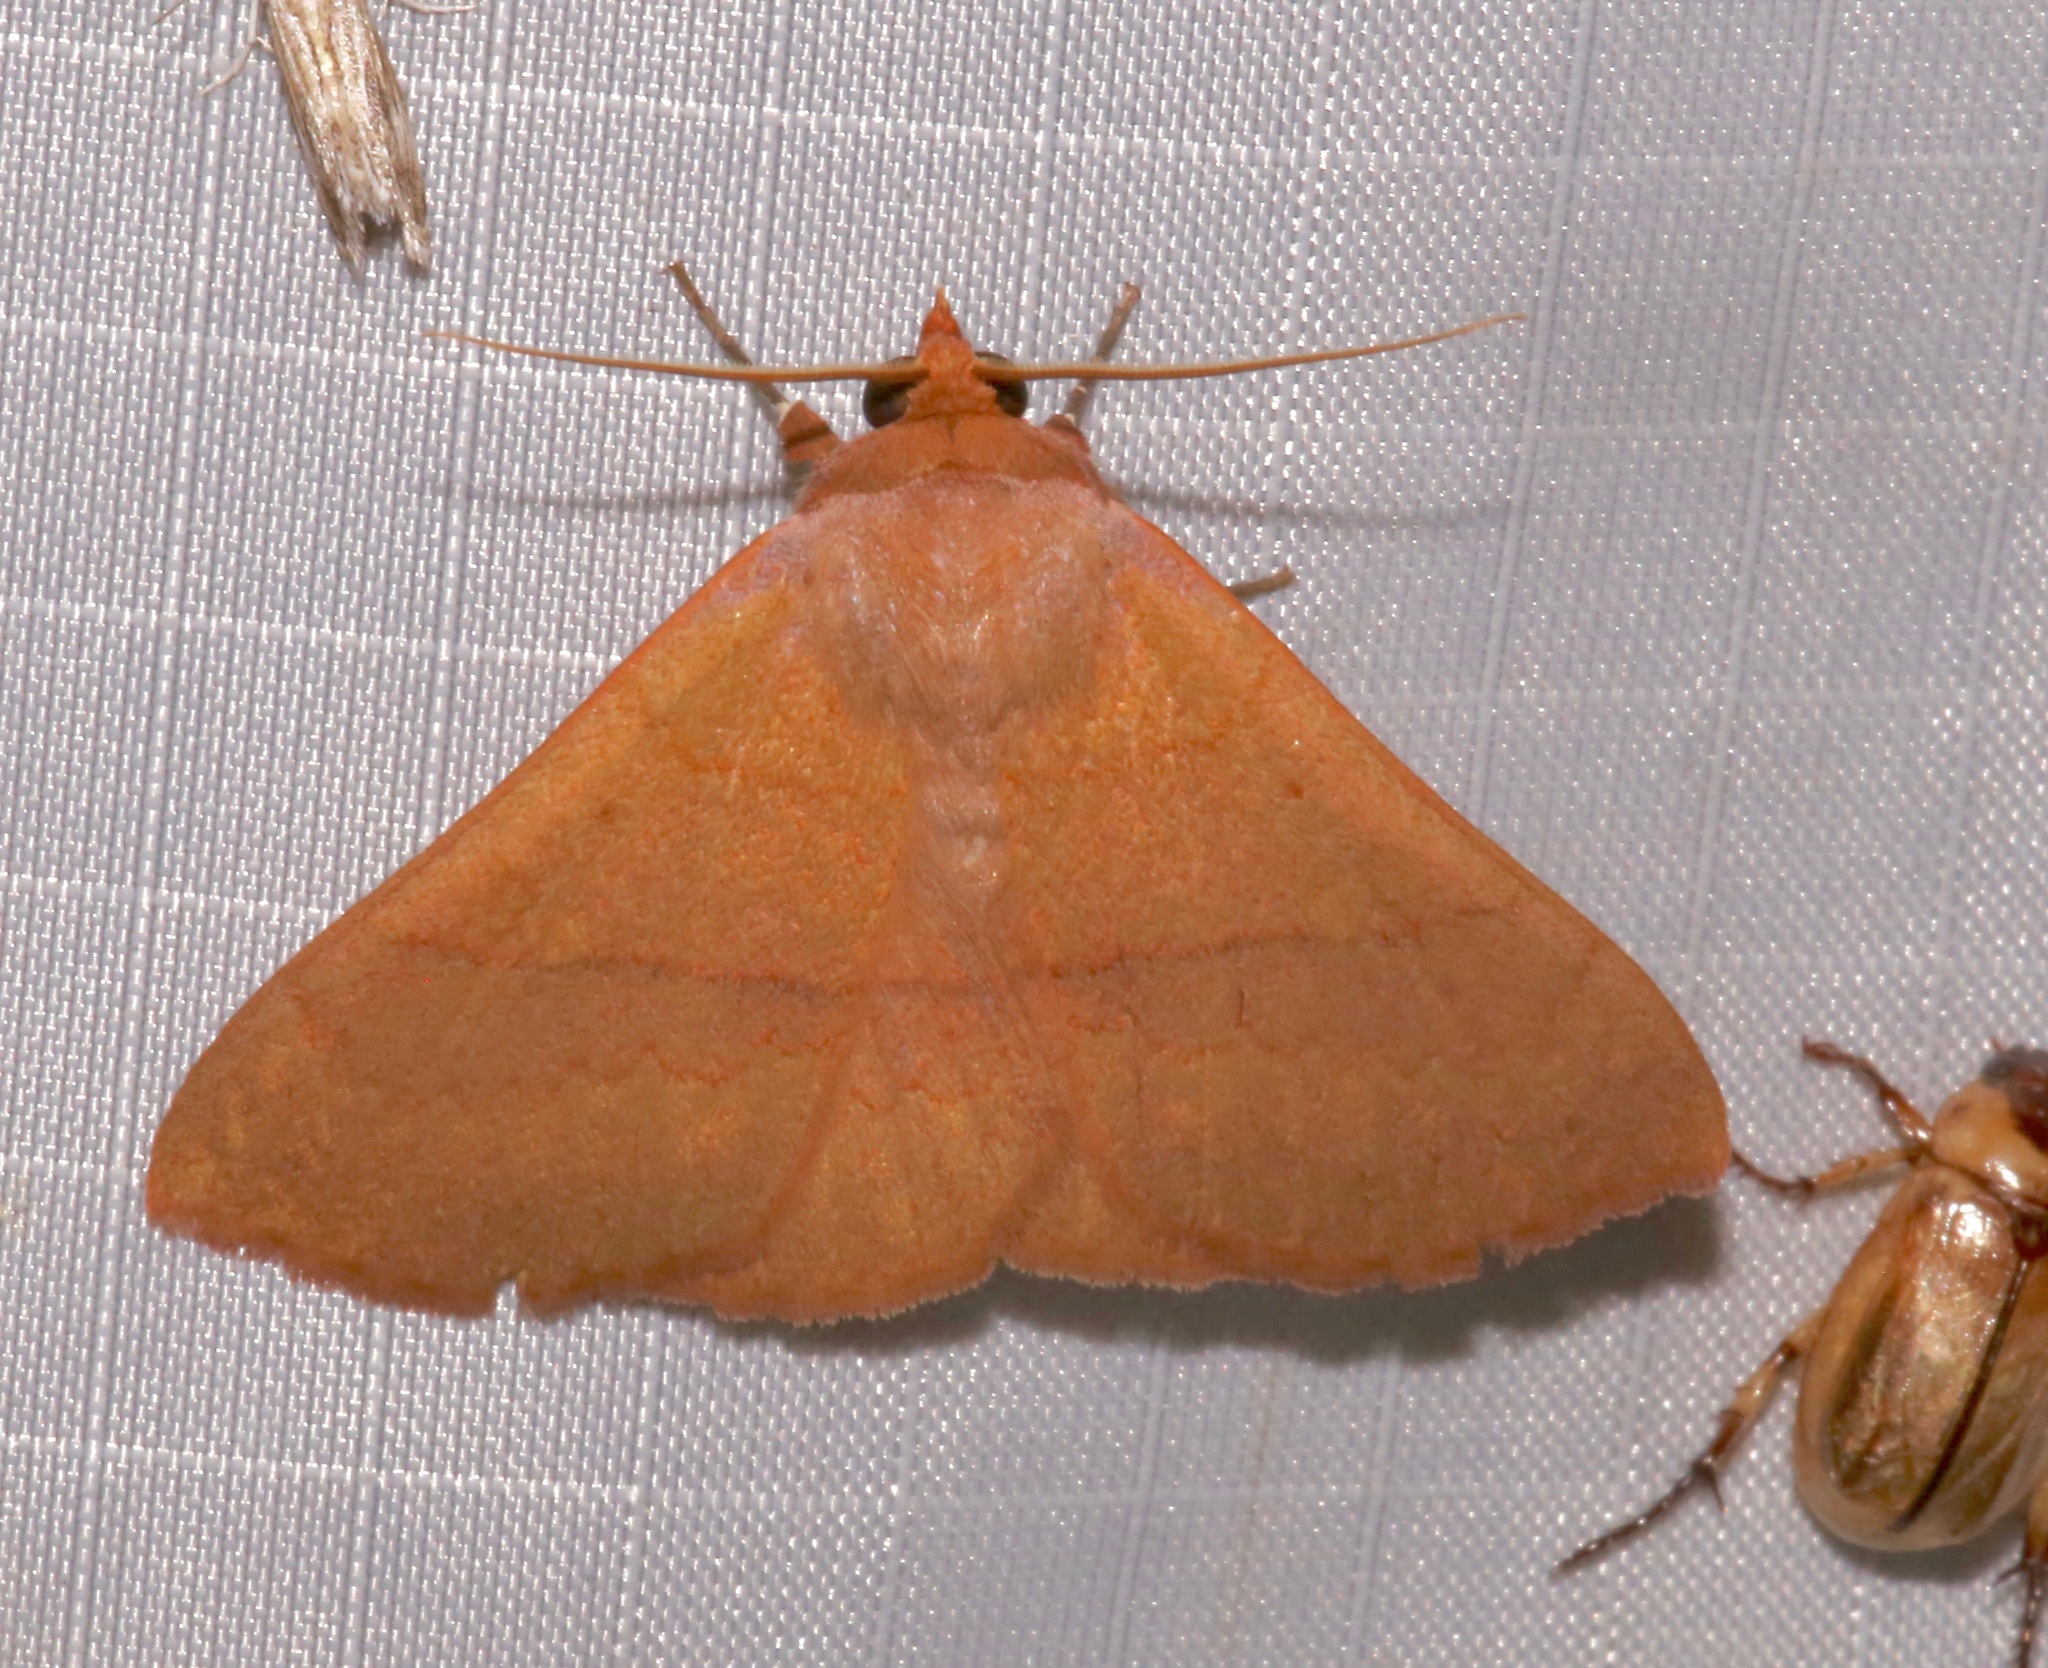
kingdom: Animalia
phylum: Arthropoda
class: Insecta
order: Lepidoptera
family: Erebidae
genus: Panopoda
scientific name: Panopoda rigida
